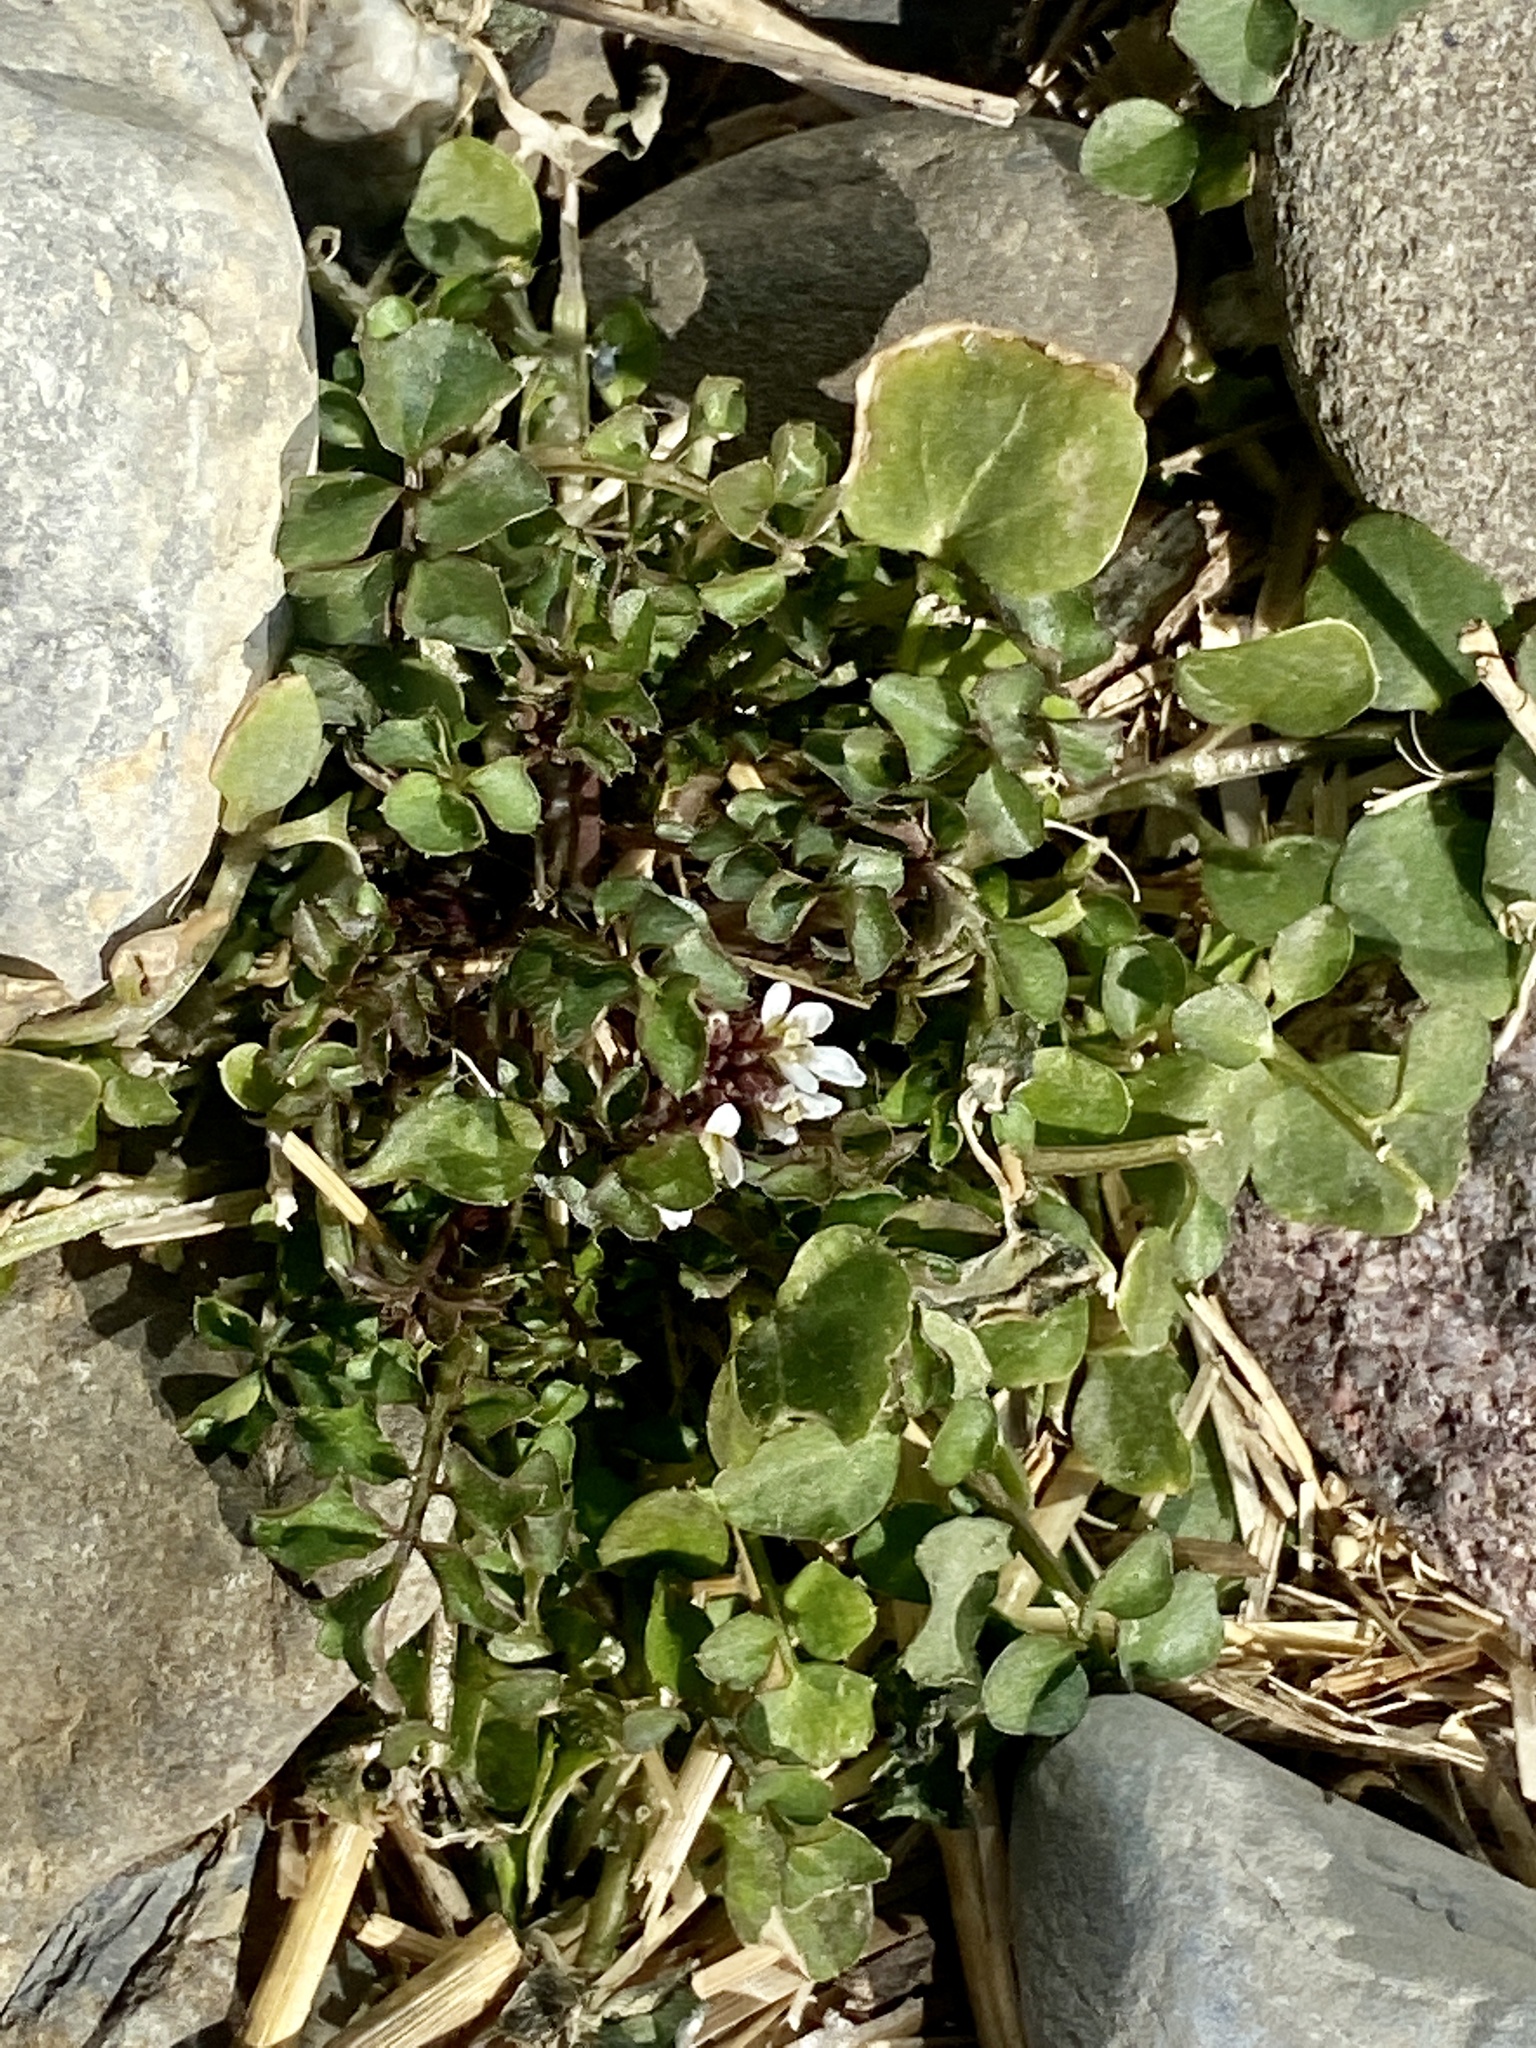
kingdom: Plantae
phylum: Tracheophyta
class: Magnoliopsida
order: Brassicales
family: Brassicaceae
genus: Cardamine
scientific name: Cardamine hirsuta
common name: Hairy bittercress
